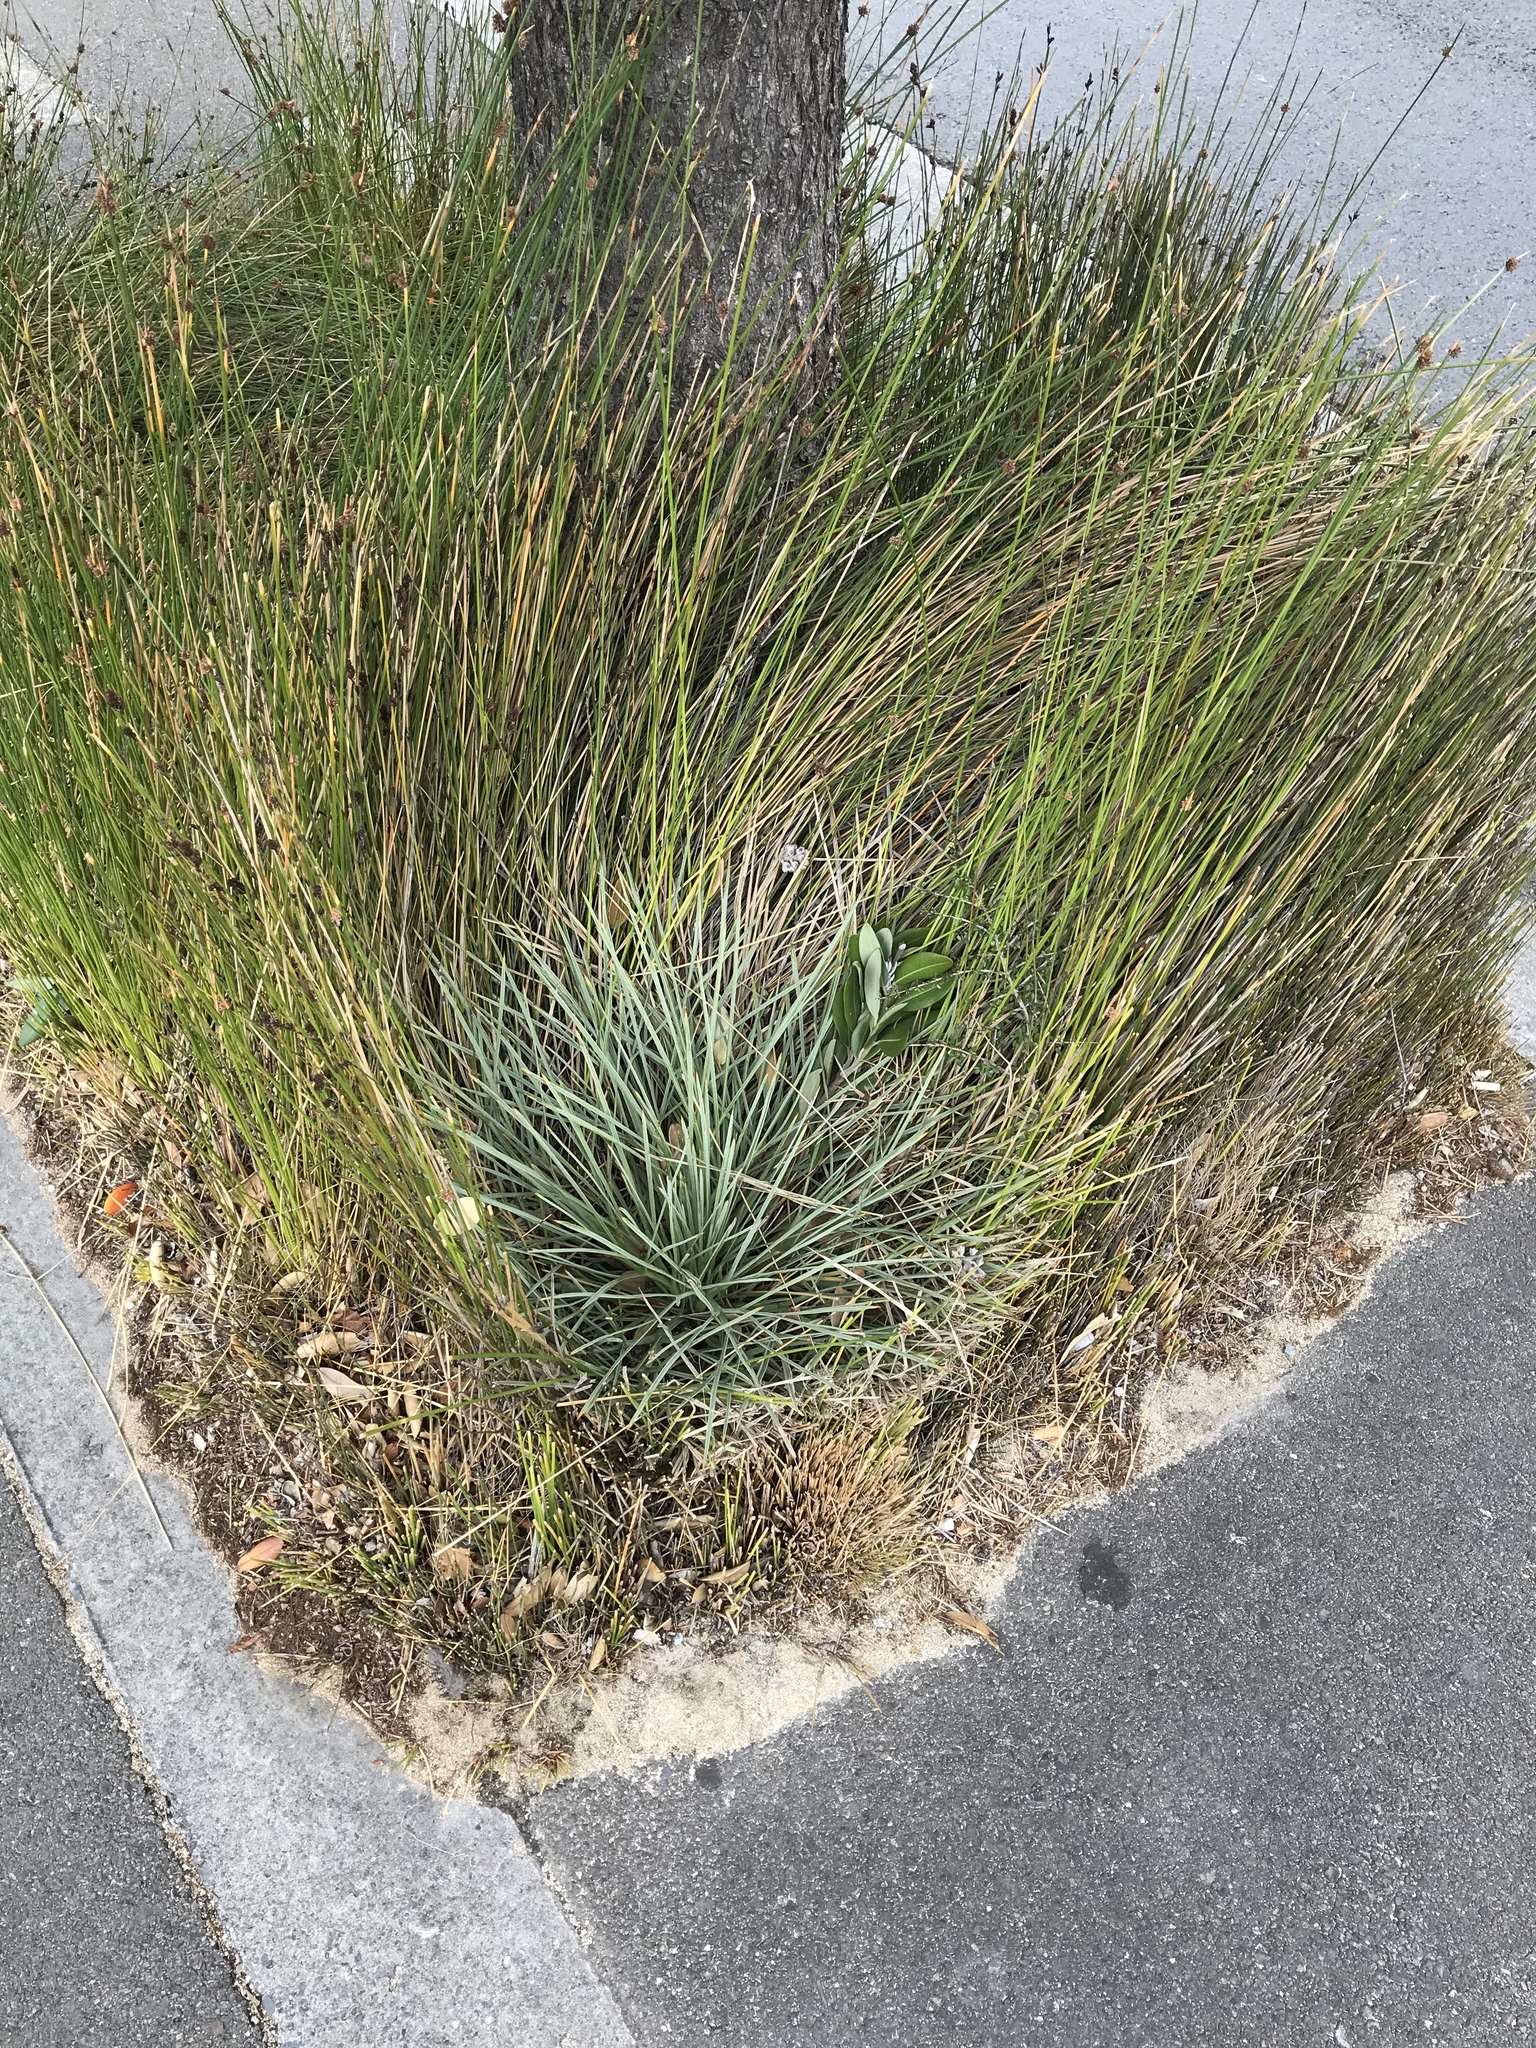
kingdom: Plantae
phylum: Tracheophyta
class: Magnoliopsida
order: Apiales
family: Apiaceae
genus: Aciphylla
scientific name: Aciphylla squarrosa
